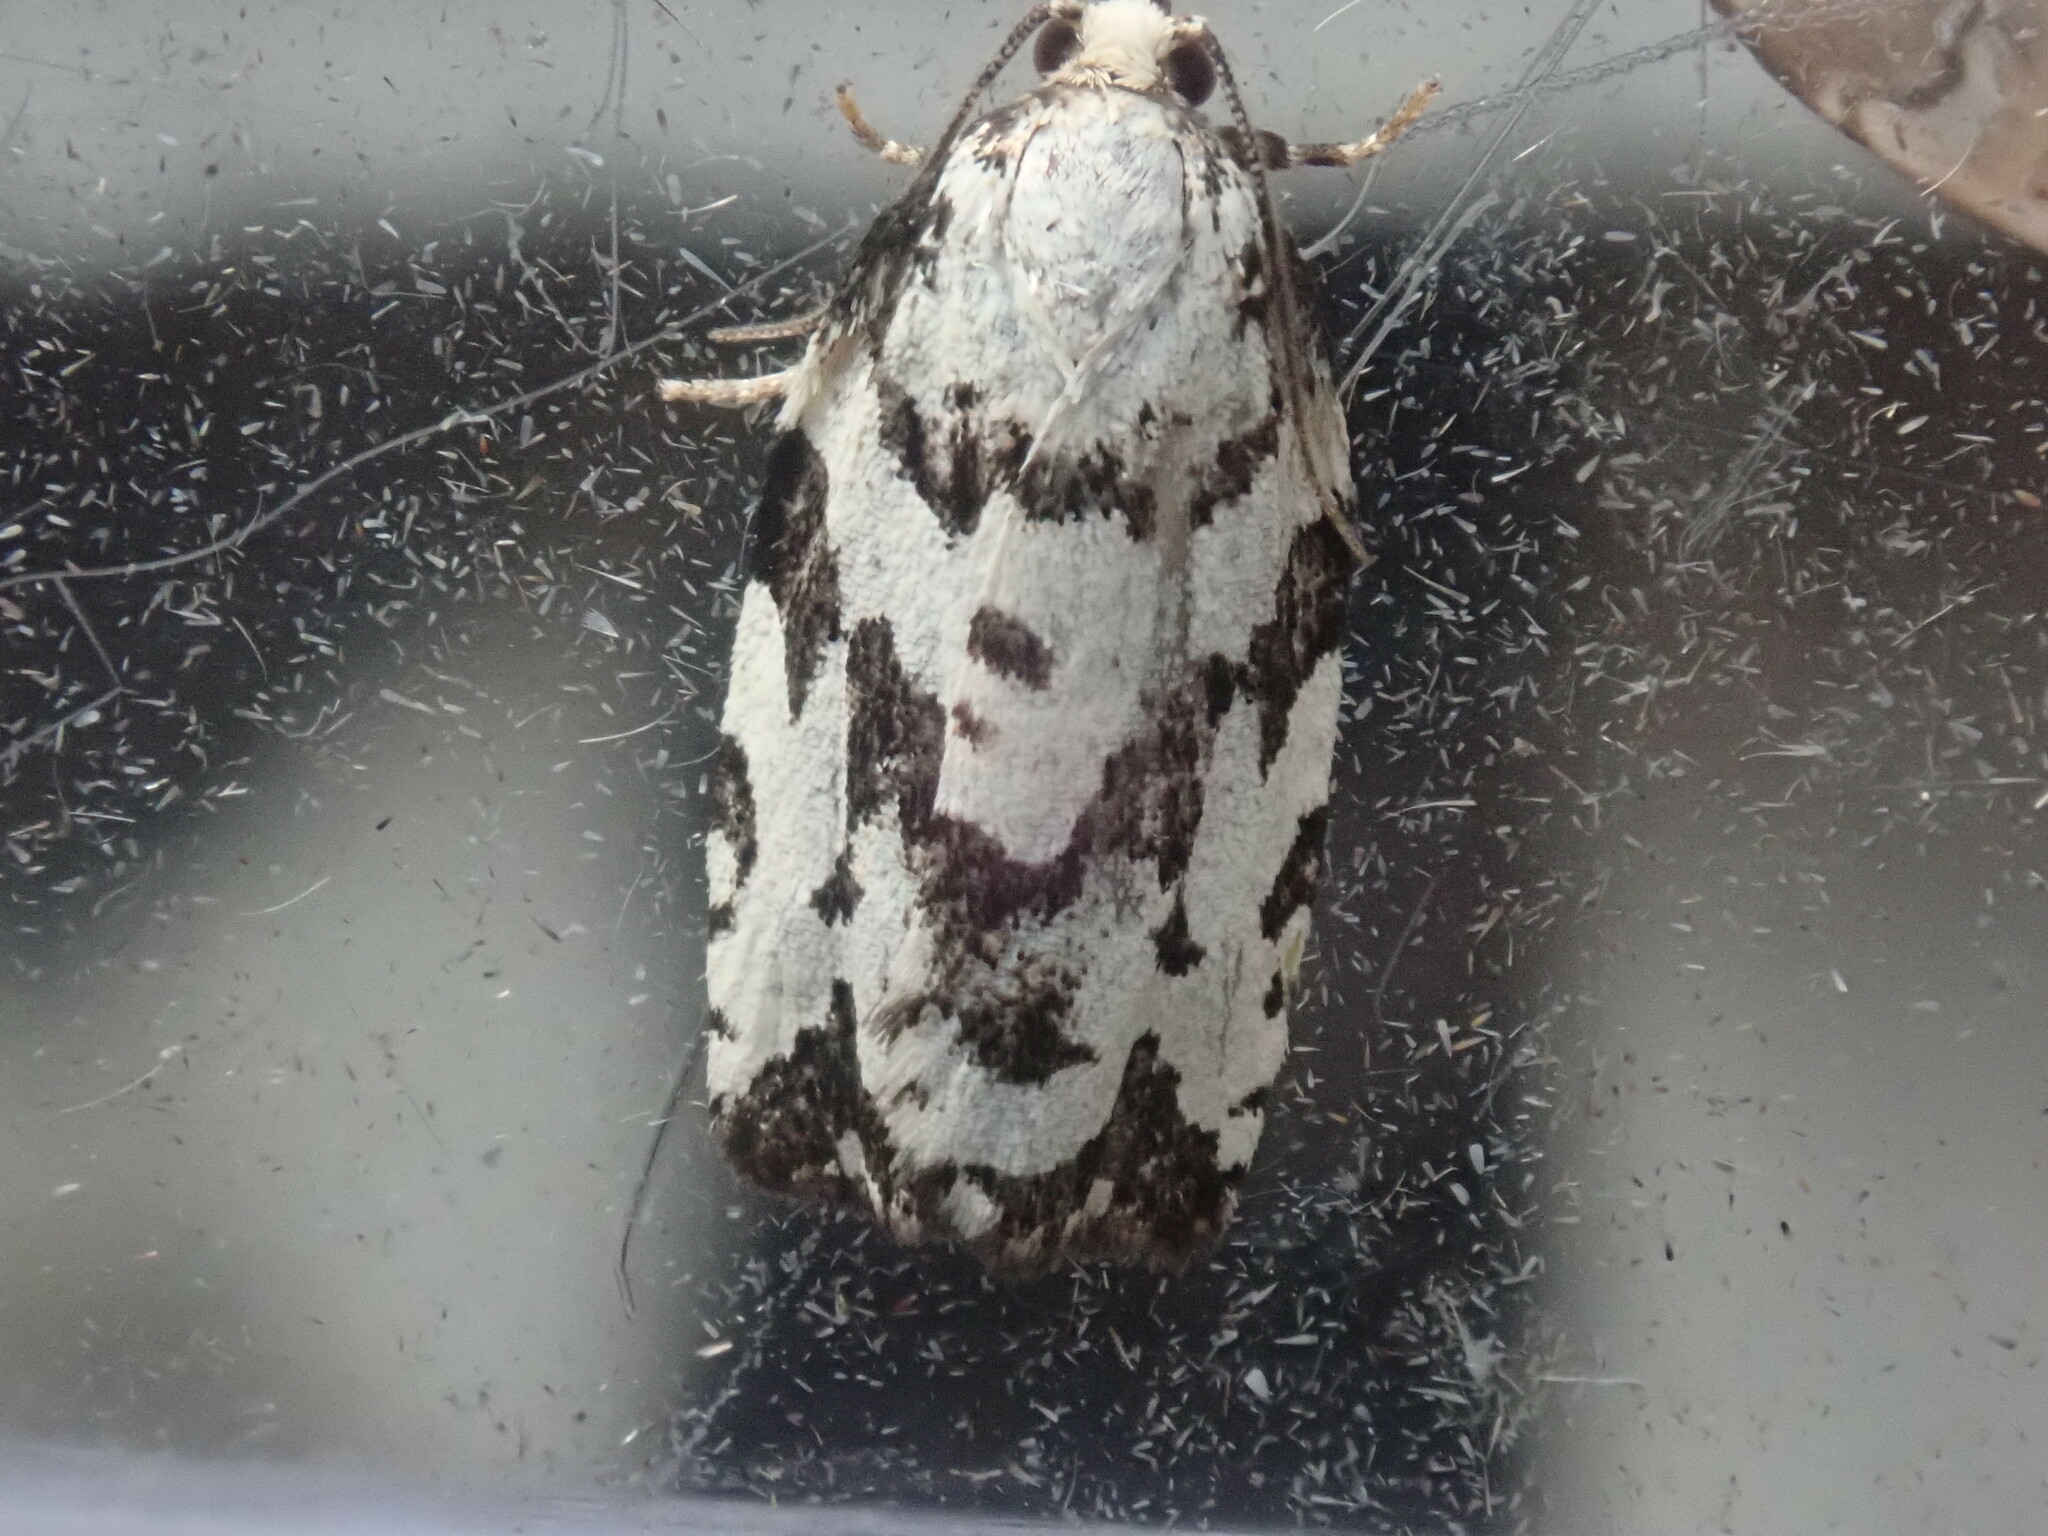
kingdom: Animalia
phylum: Arthropoda
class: Insecta
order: Lepidoptera
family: Tortricidae
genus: Archips
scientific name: Archips dissitana
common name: Boldly-marked archips moth
